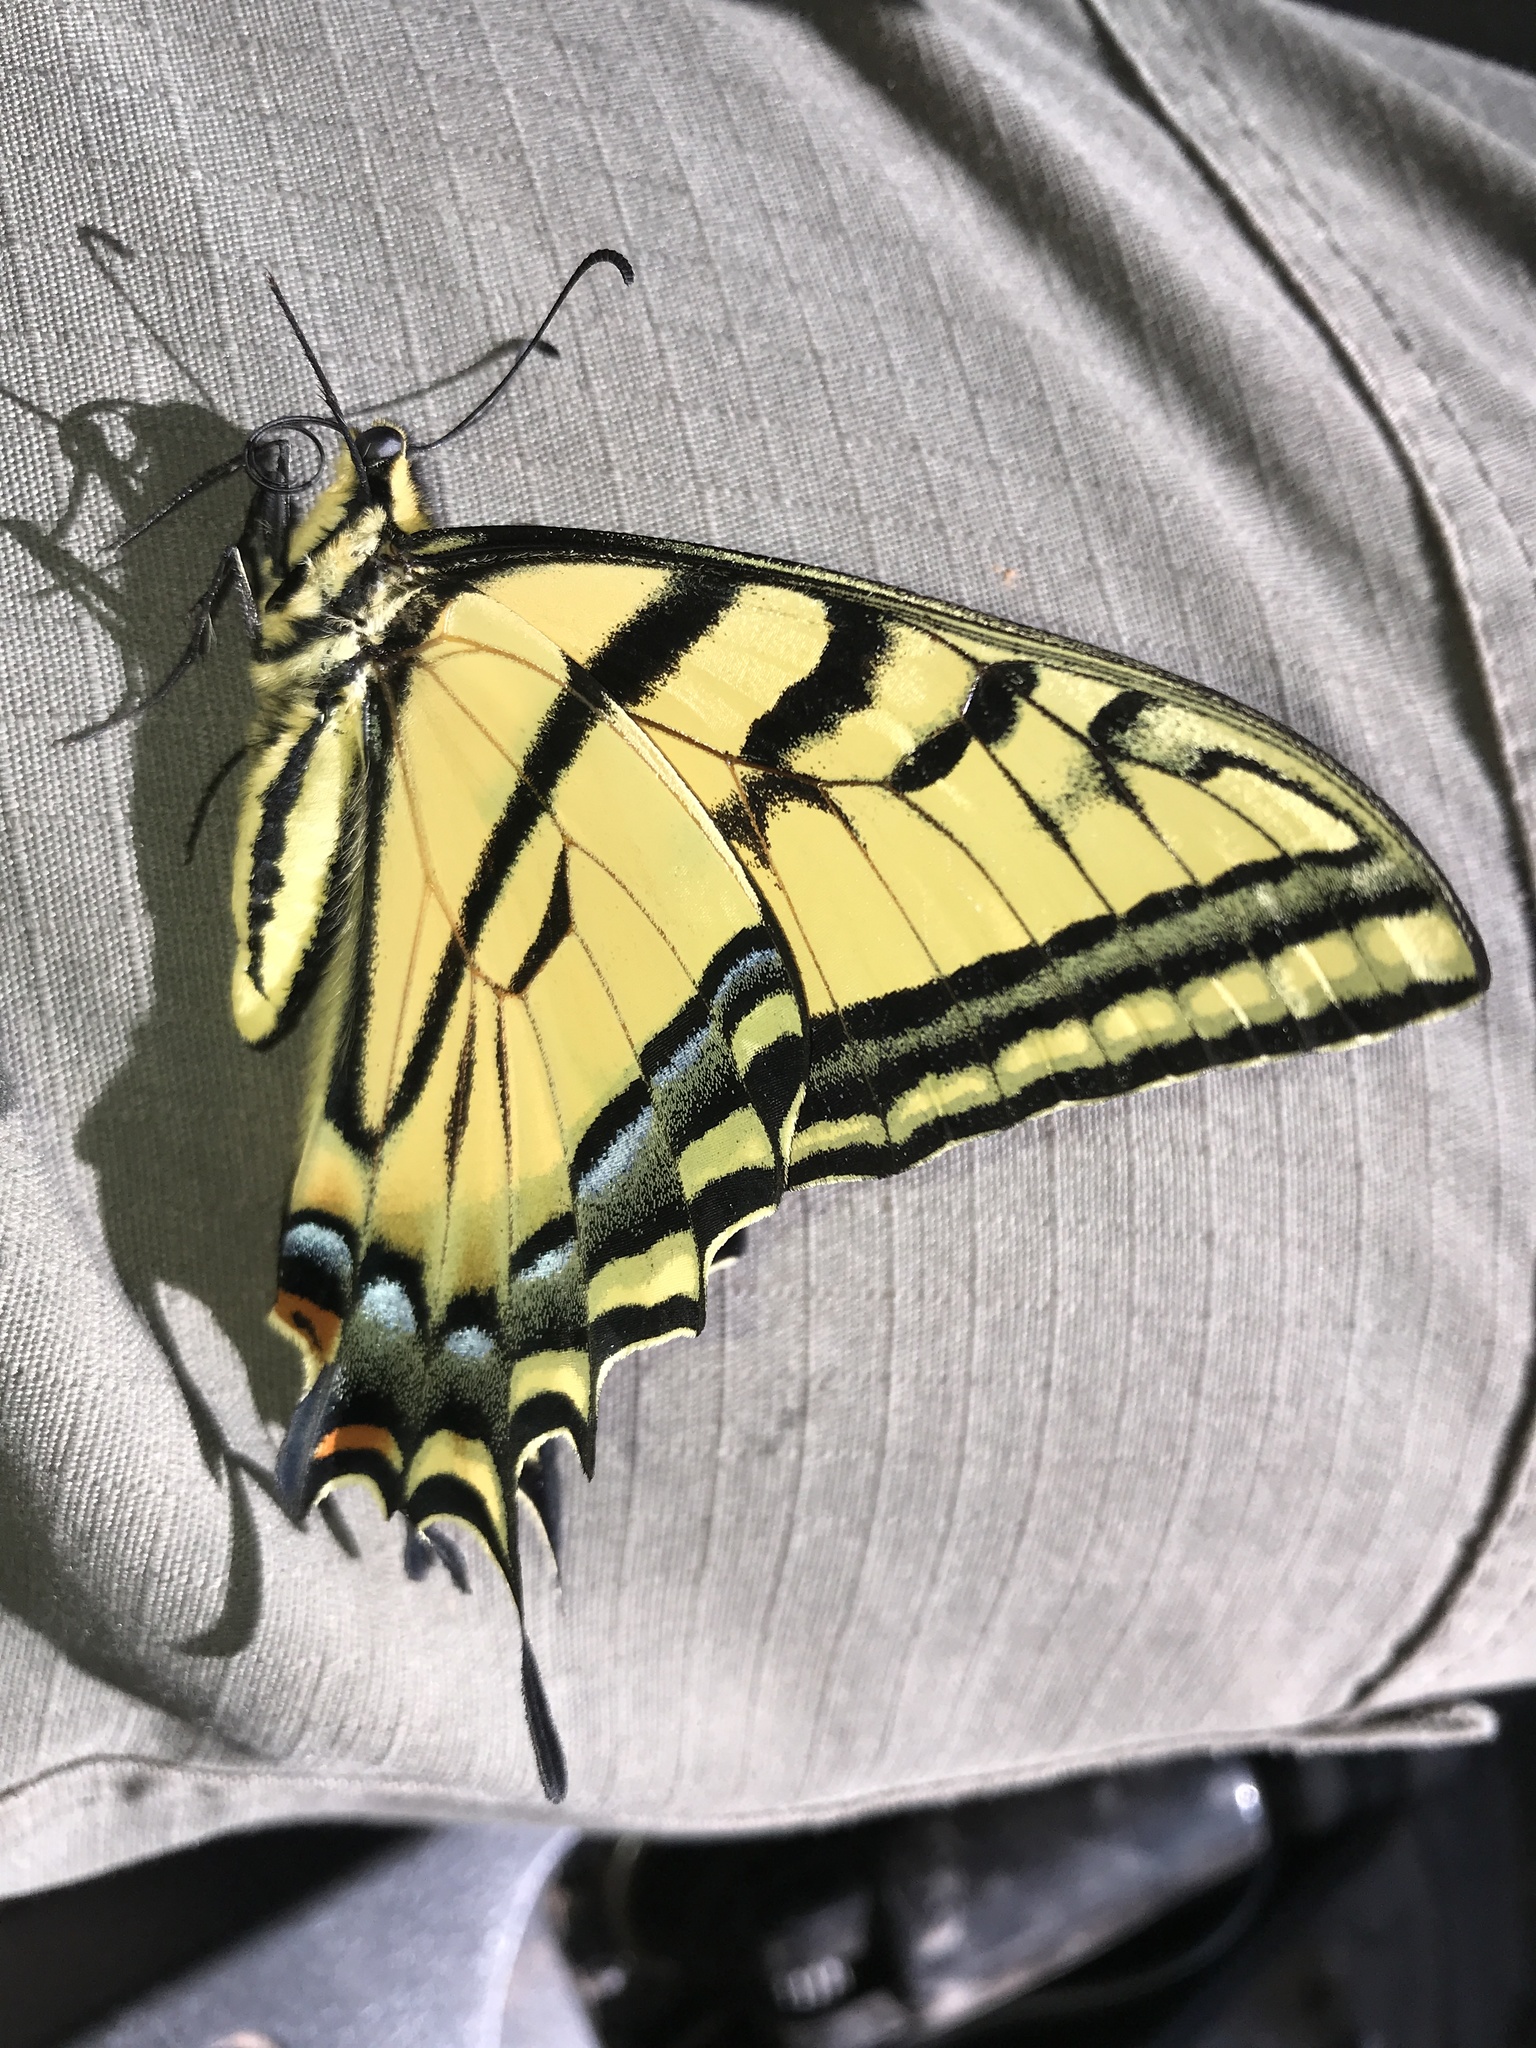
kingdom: Animalia
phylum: Arthropoda
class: Insecta
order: Lepidoptera
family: Papilionidae
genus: Papilio
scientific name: Papilio multicaudata
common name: Two-tailed tiger swallowtail
